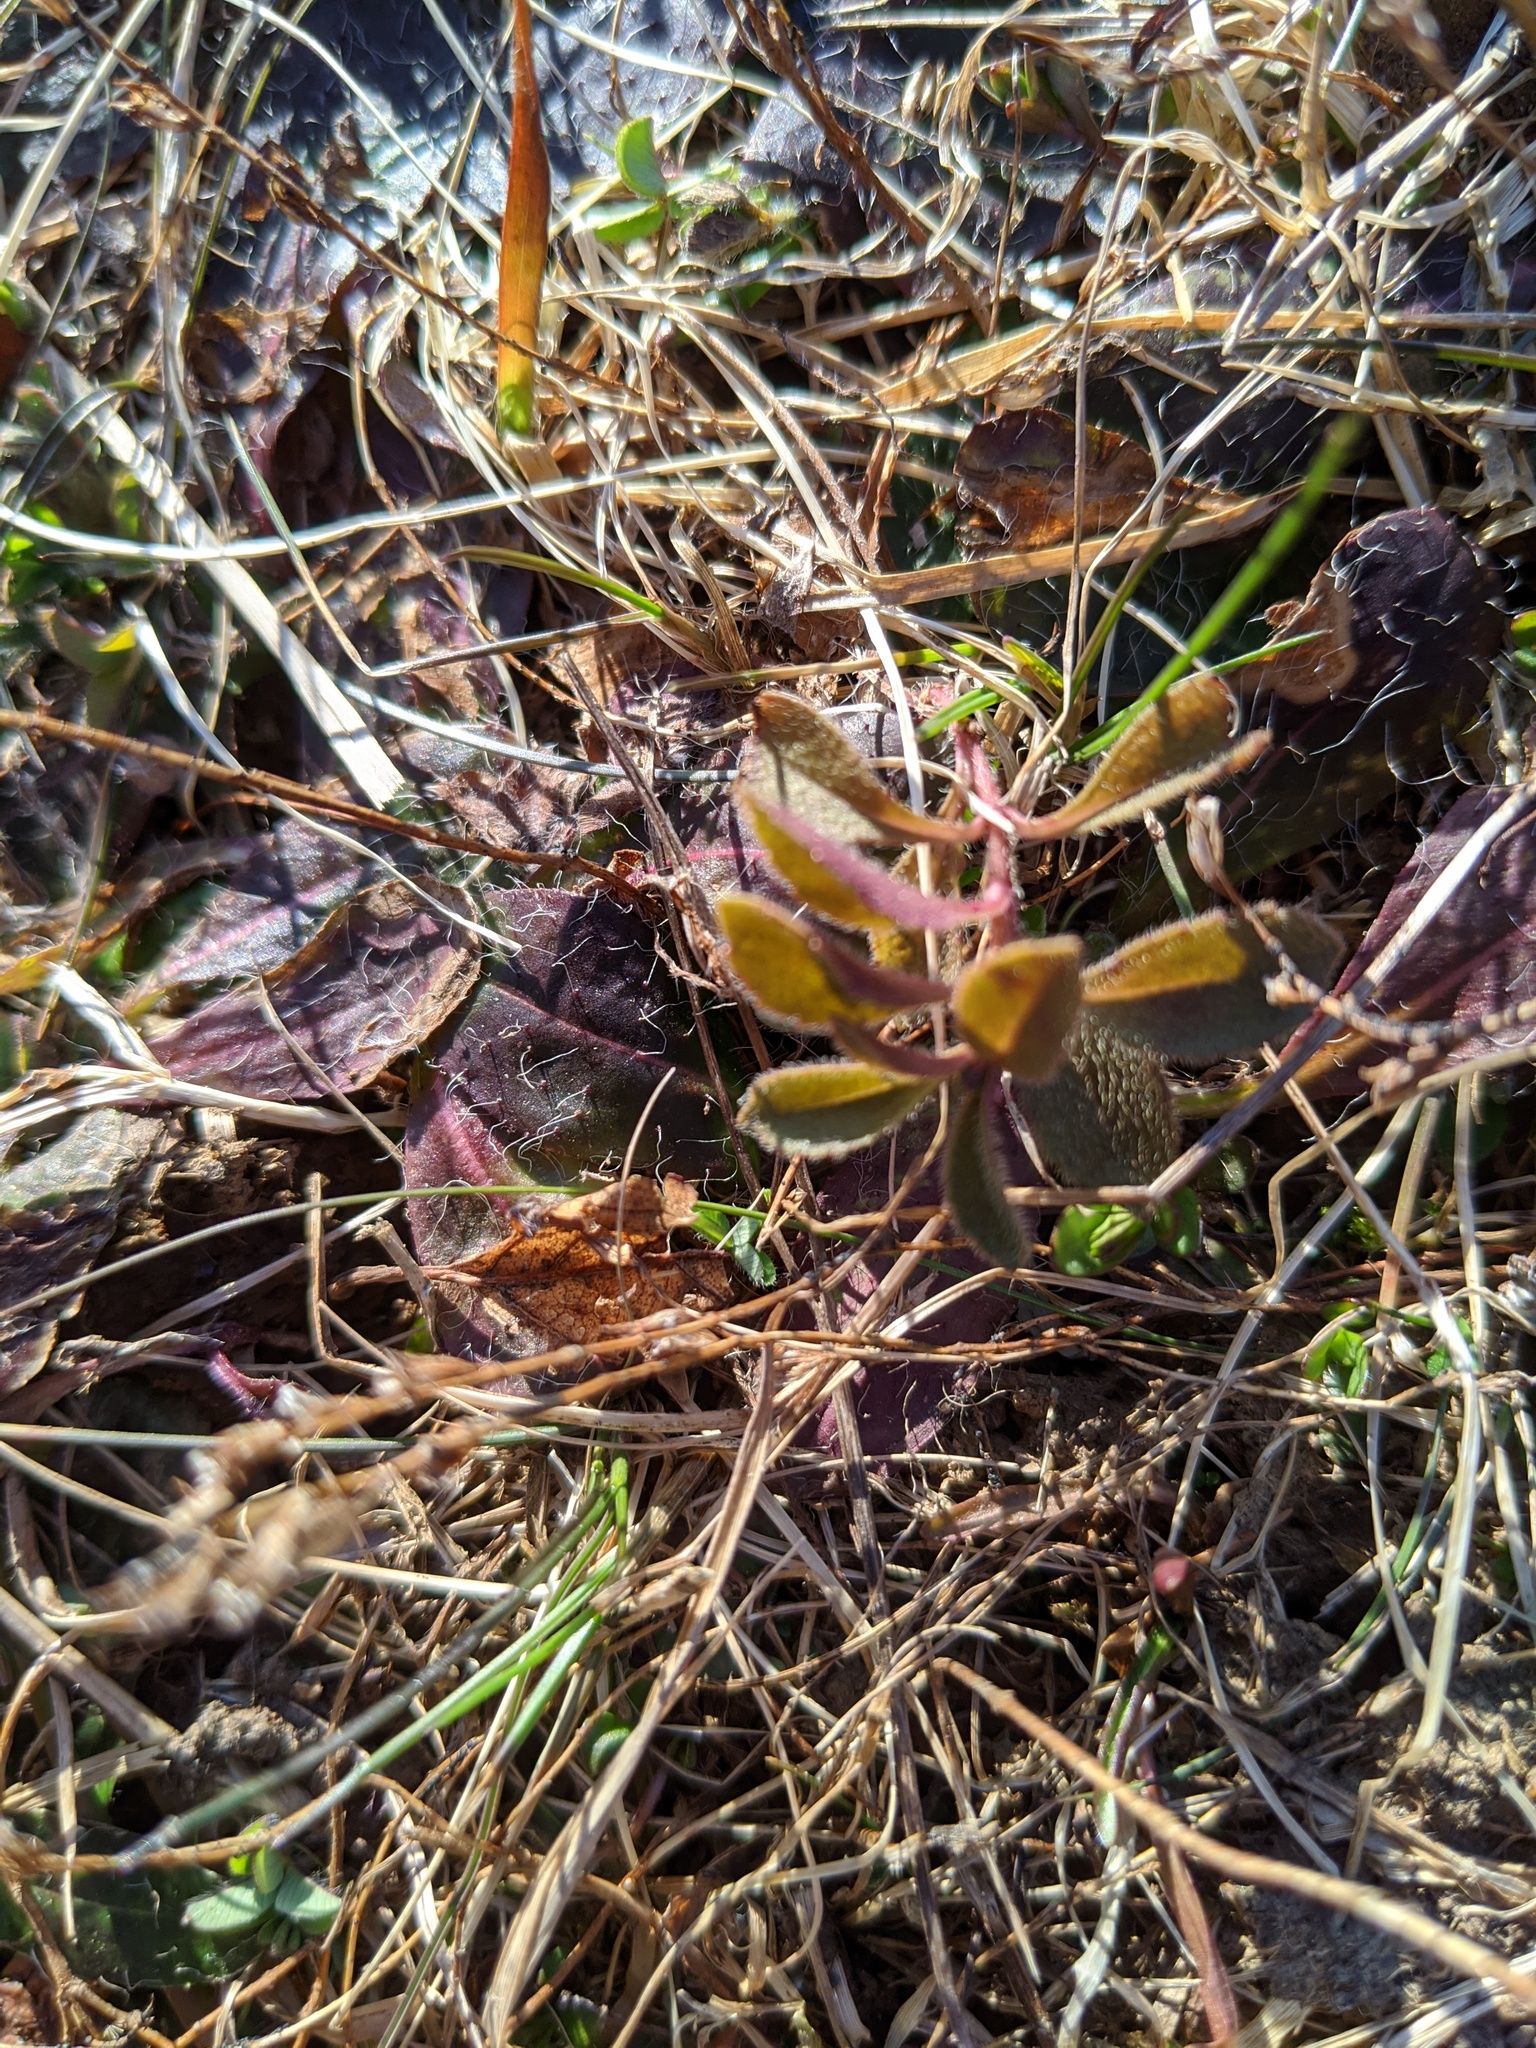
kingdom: Plantae
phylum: Tracheophyta
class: Magnoliopsida
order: Lamiales
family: Plantaginaceae
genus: Veronica
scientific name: Veronica officinalis
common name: Common speedwell
